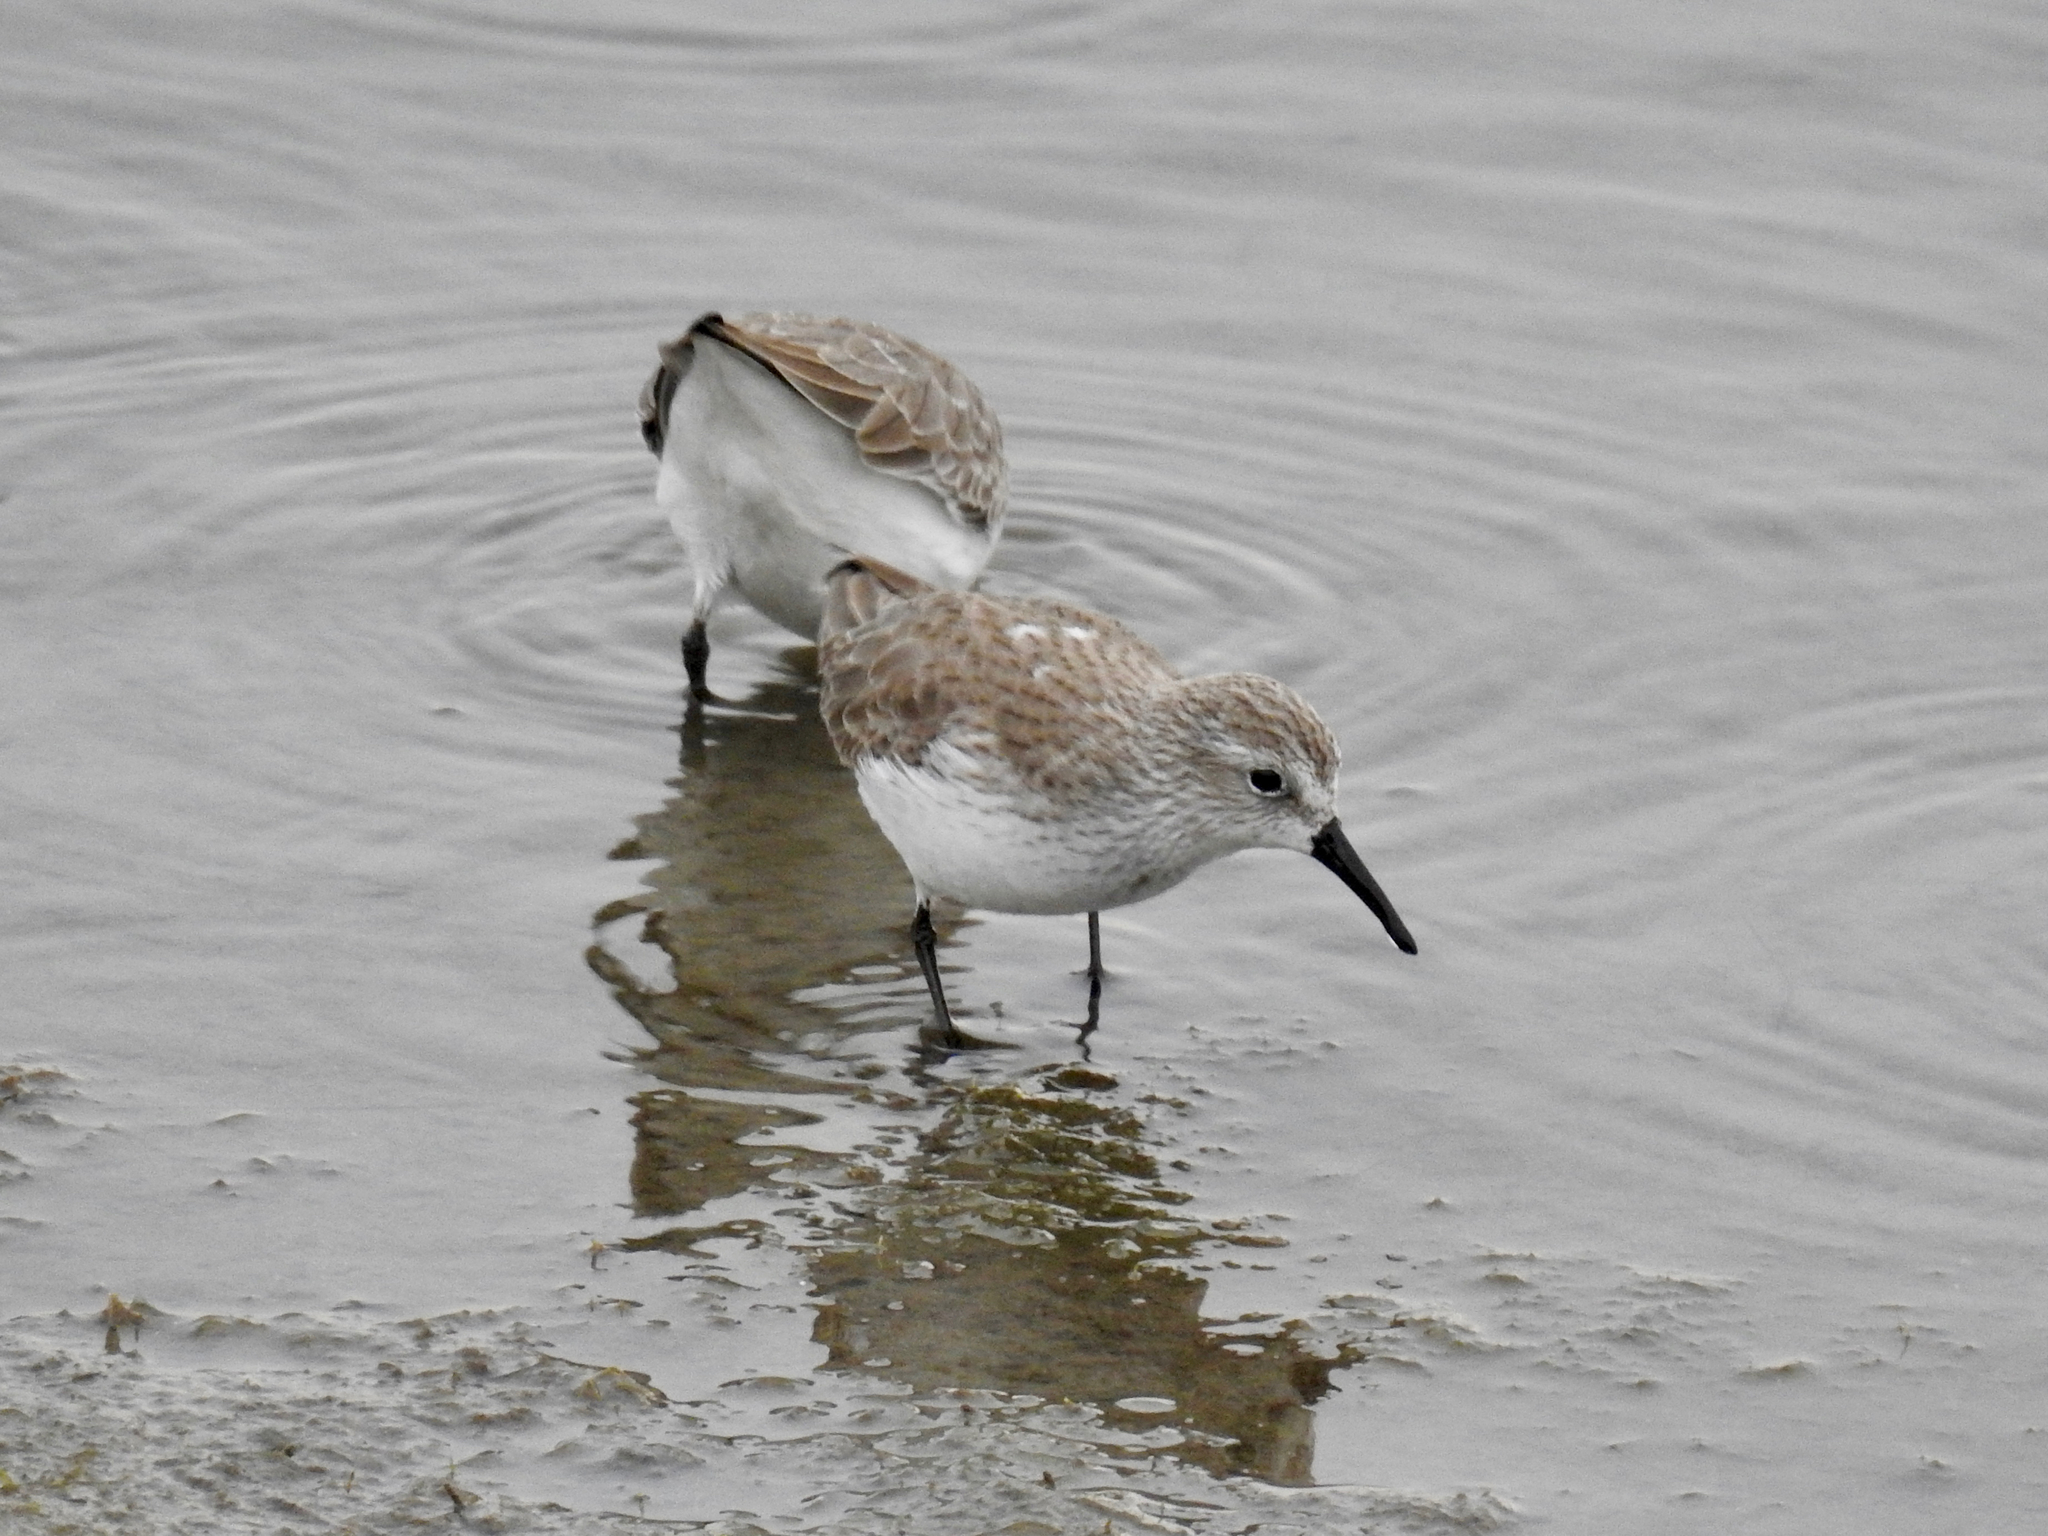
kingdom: Animalia
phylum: Chordata
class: Aves
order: Charadriiformes
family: Scolopacidae
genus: Calidris
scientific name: Calidris mauri
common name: Western sandpiper
